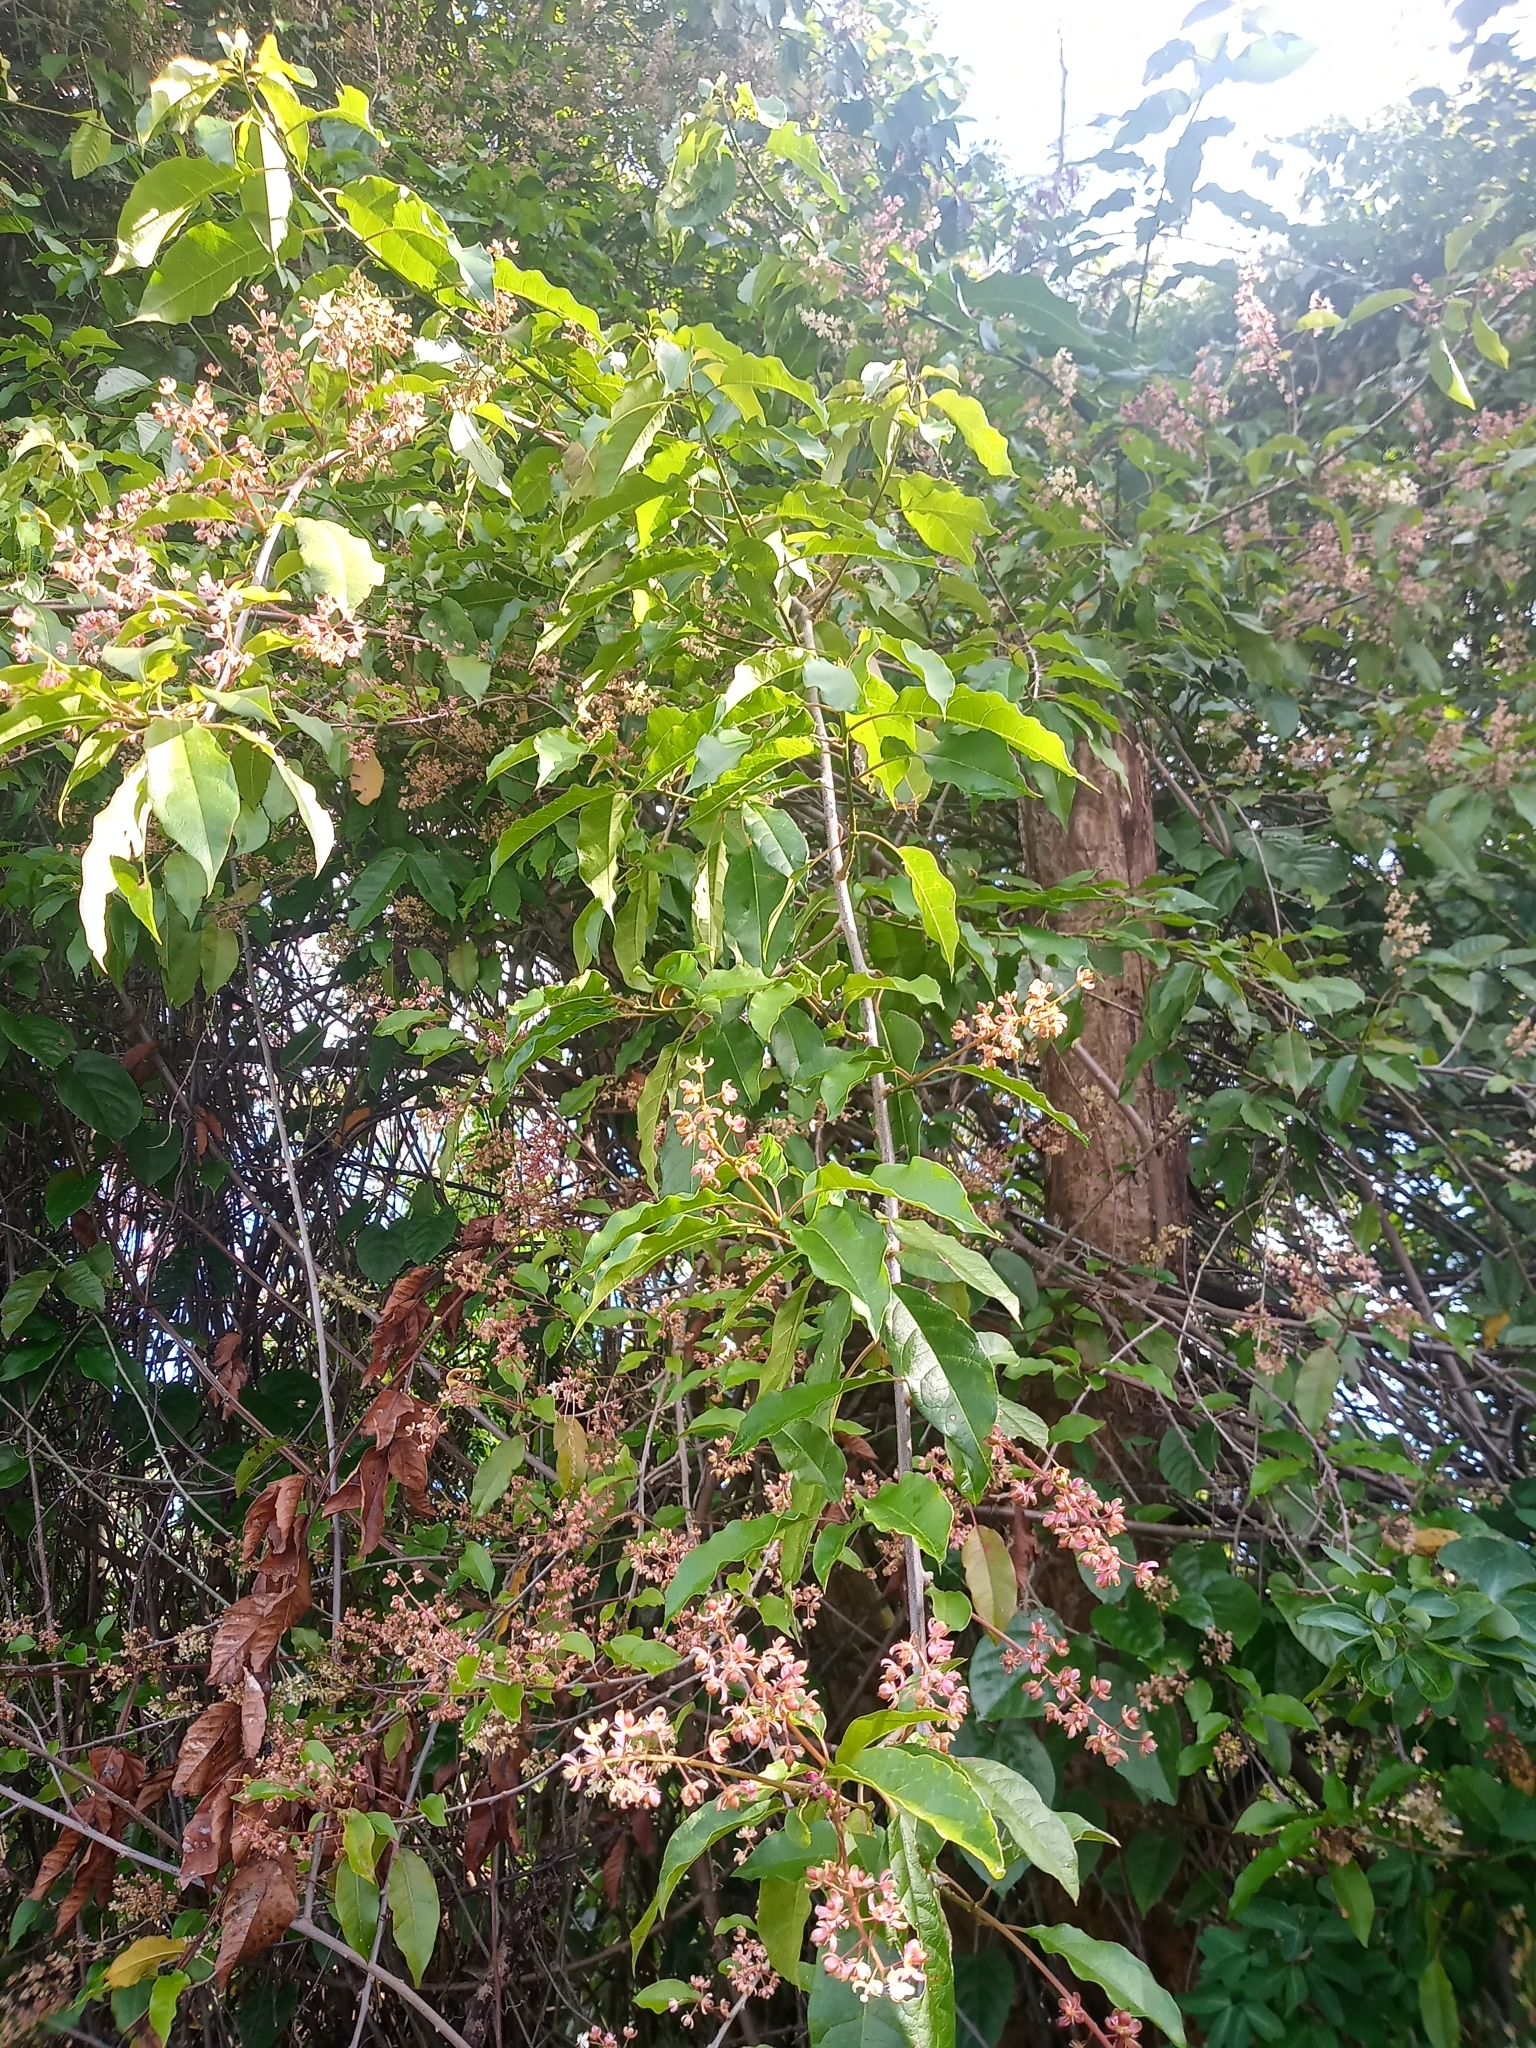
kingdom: Plantae
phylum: Tracheophyta
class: Magnoliopsida
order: Caryophyllales
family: Phytolaccaceae
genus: Trichostigma
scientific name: Trichostigma octandrum
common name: Basket wiss
